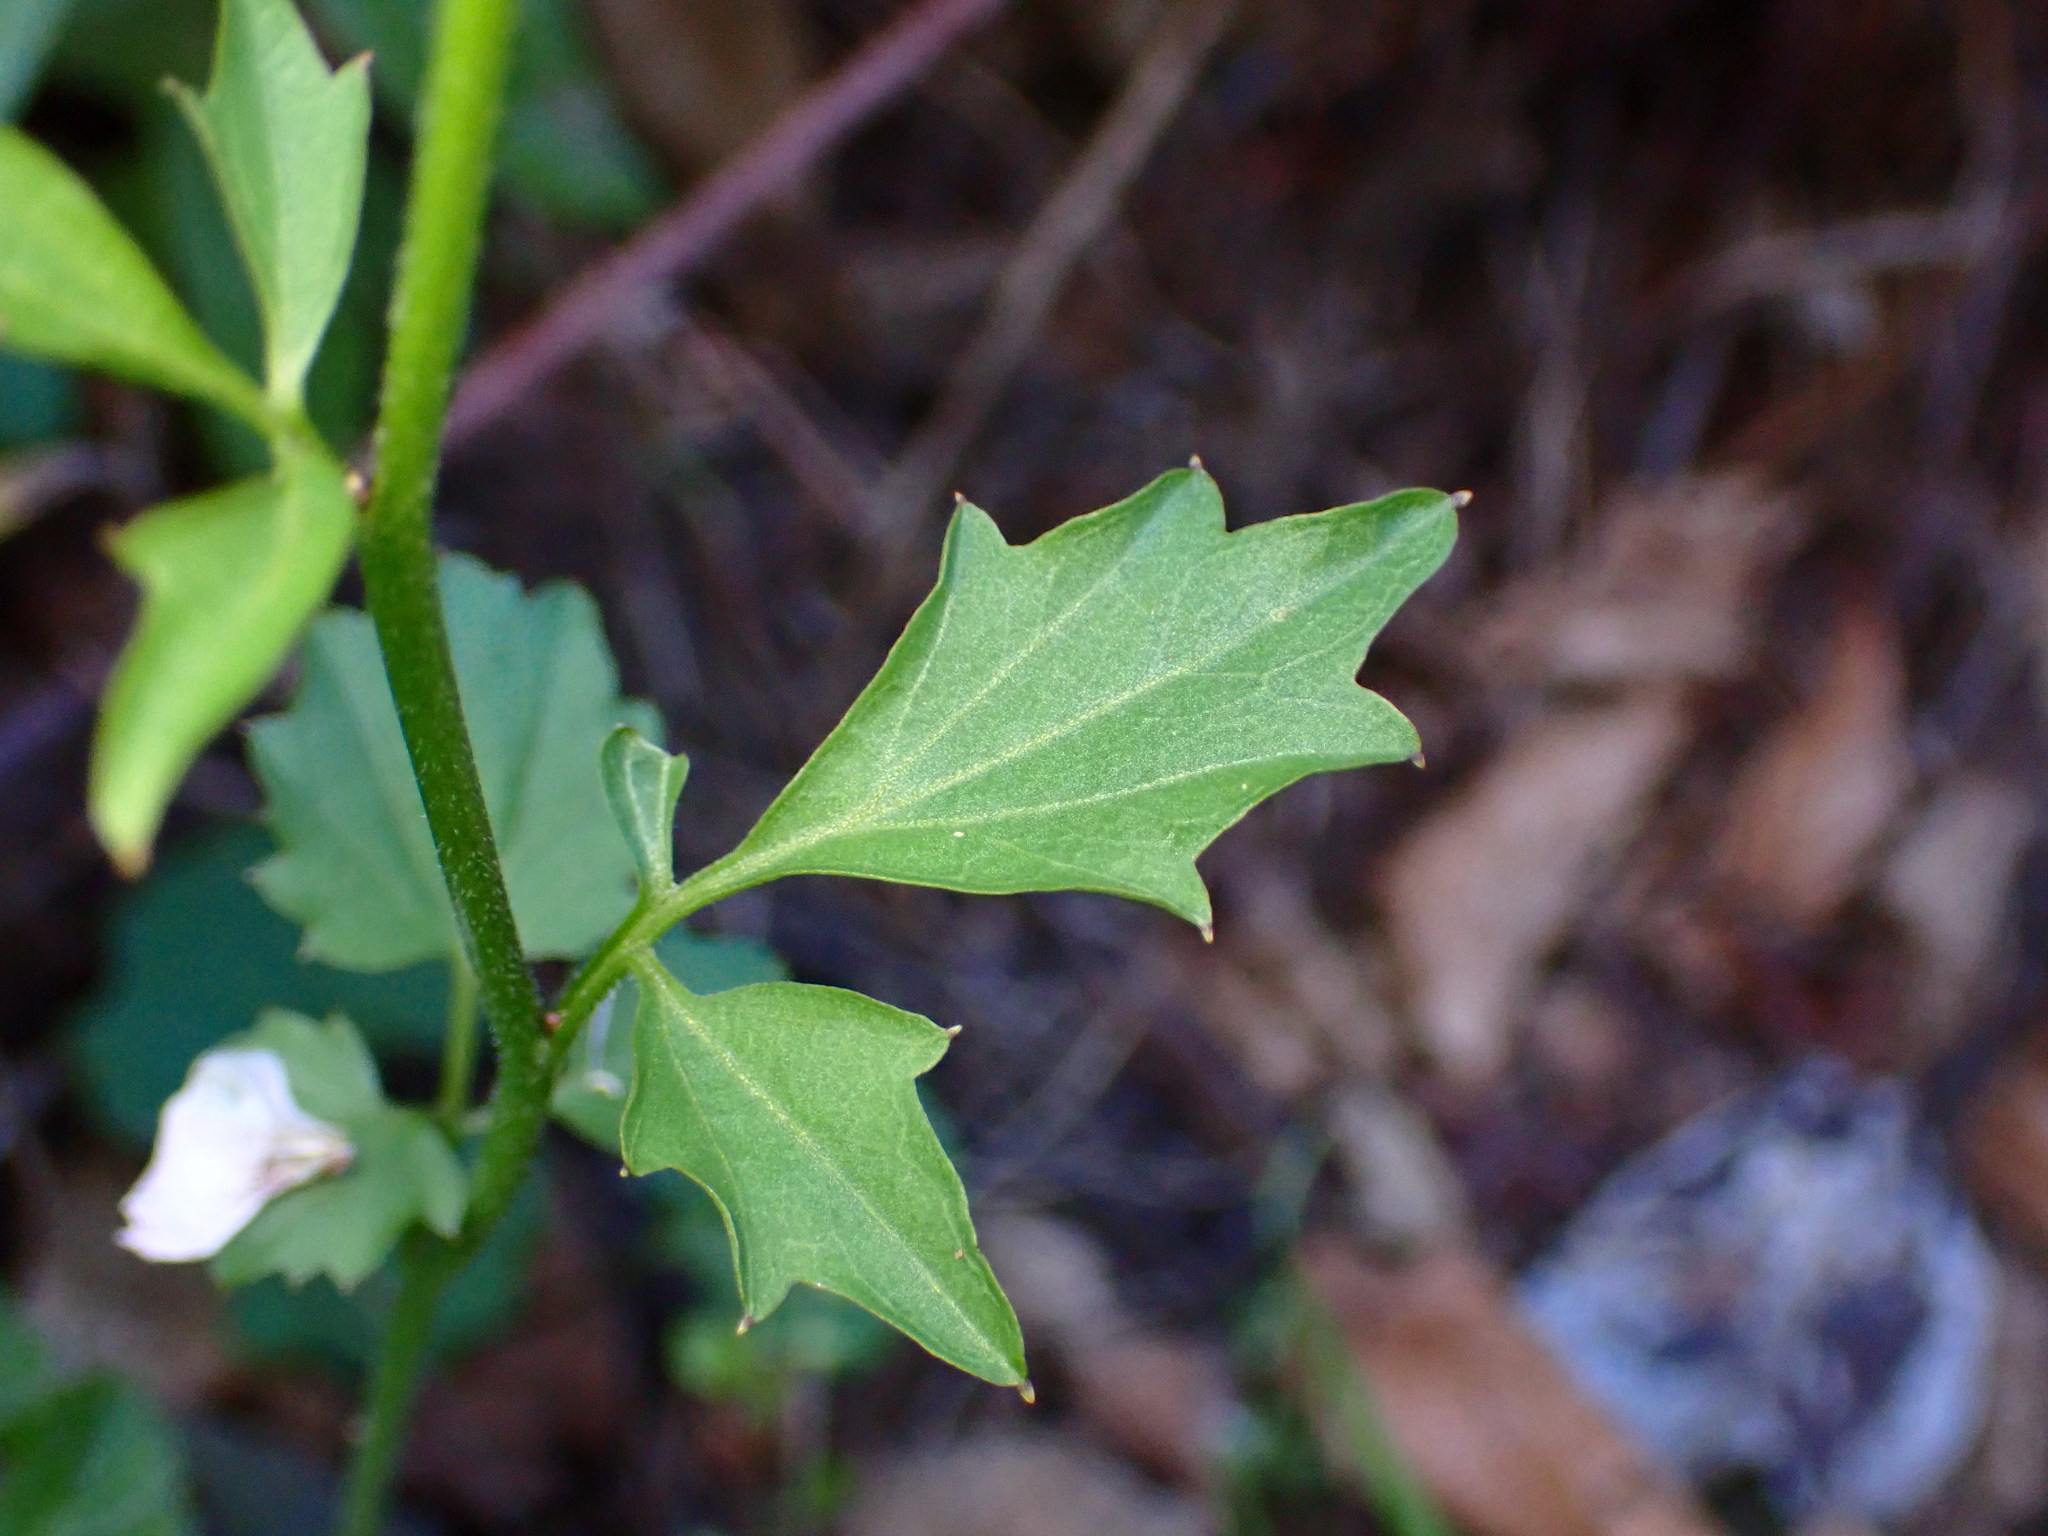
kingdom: Plantae
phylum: Tracheophyta
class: Magnoliopsida
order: Brassicales
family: Brassicaceae
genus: Cardamine
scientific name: Cardamine californica
